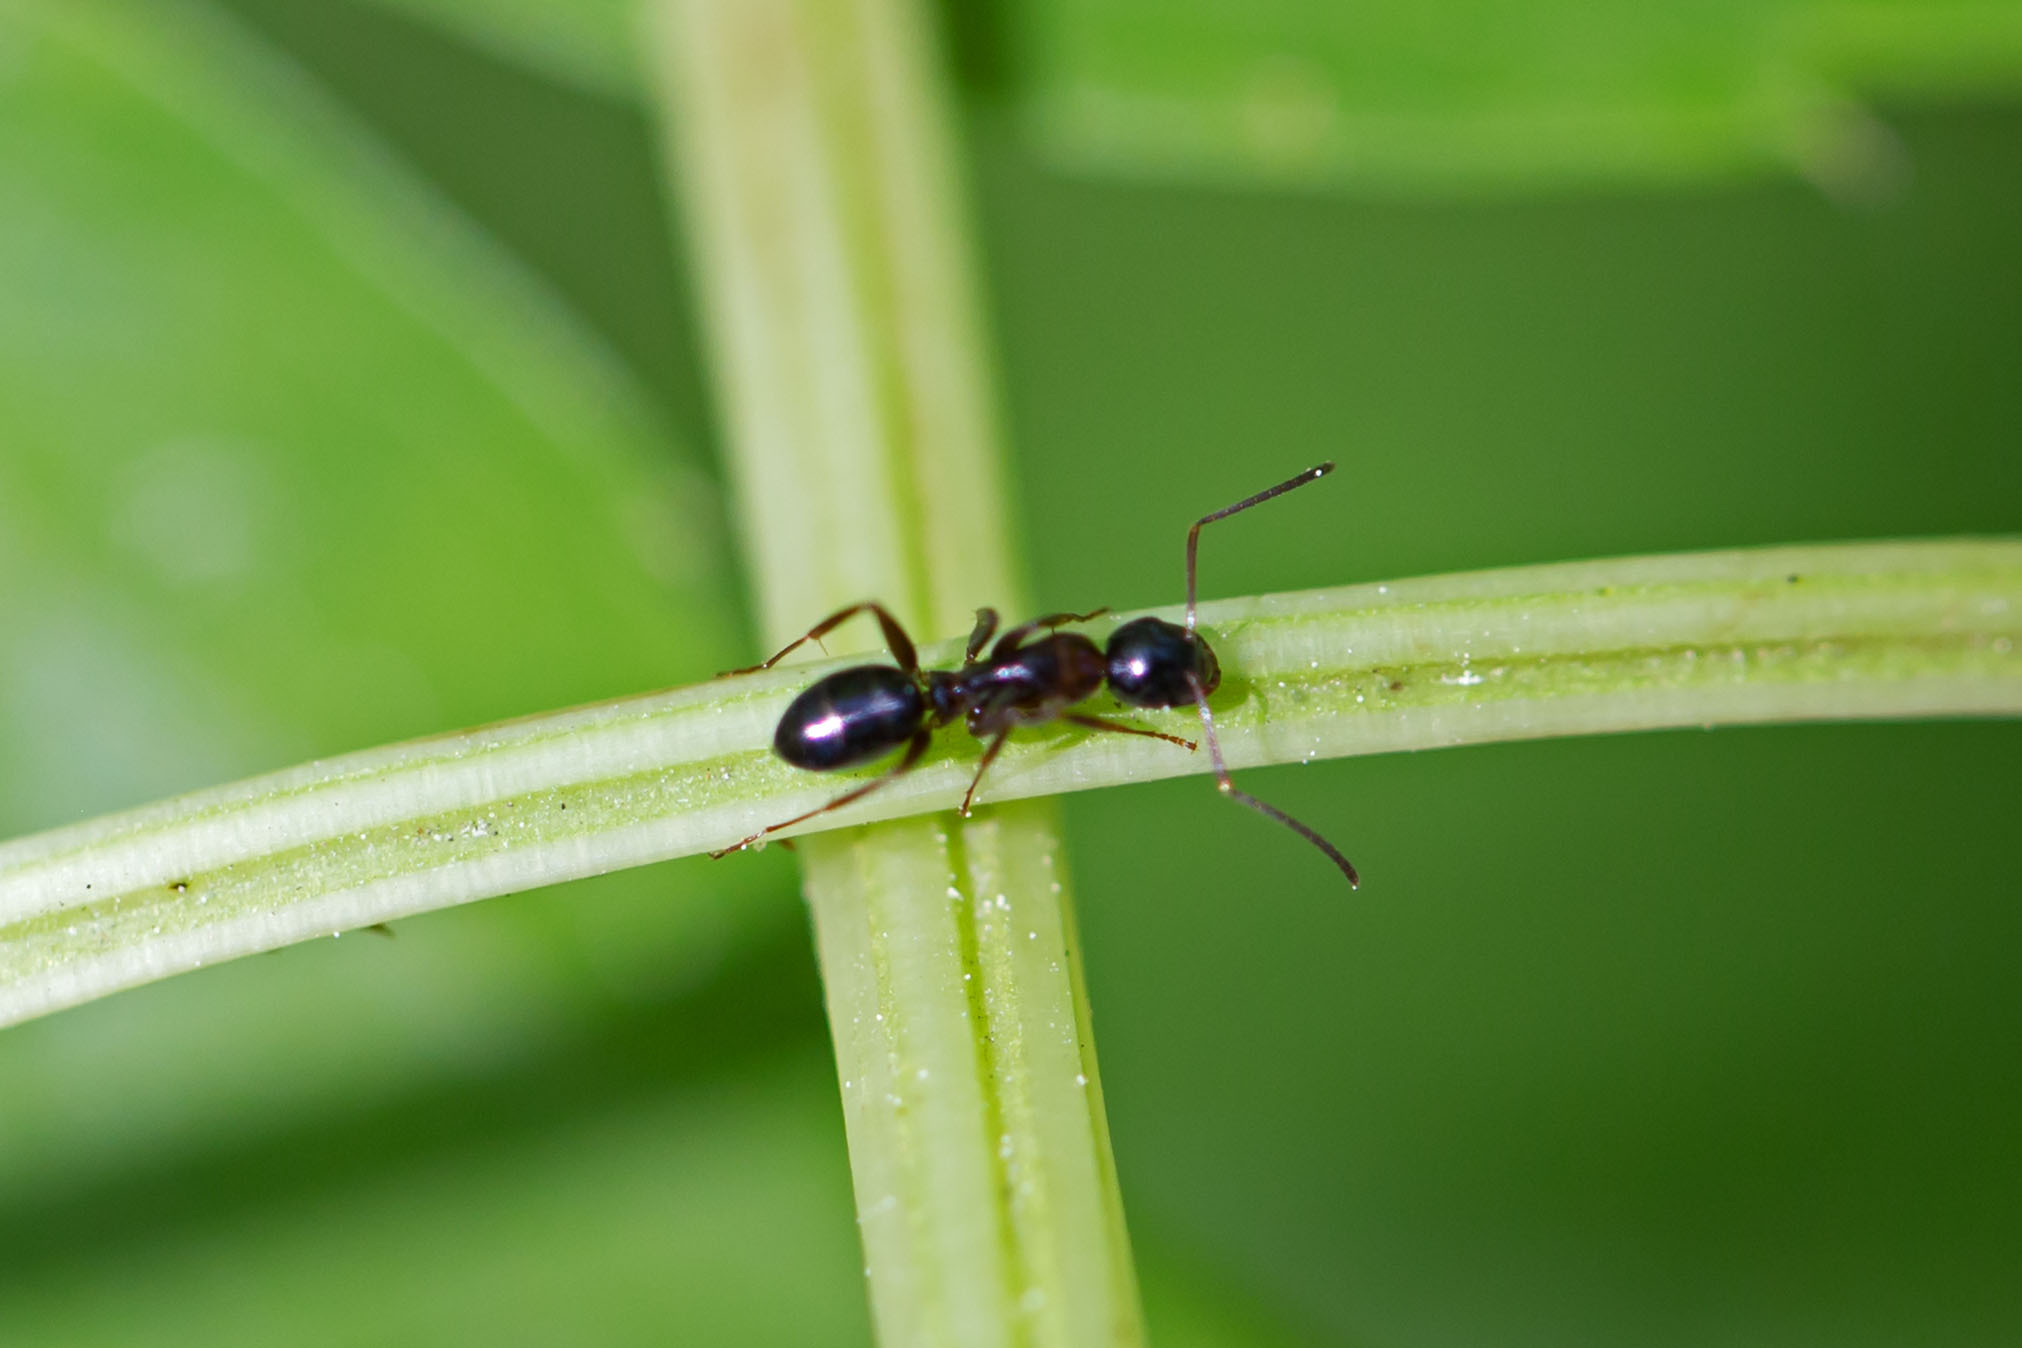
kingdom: Animalia
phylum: Arthropoda
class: Insecta
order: Hymenoptera
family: Formicidae
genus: Camponotus
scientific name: Camponotus nearcticus
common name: Smaller carpenter ant
